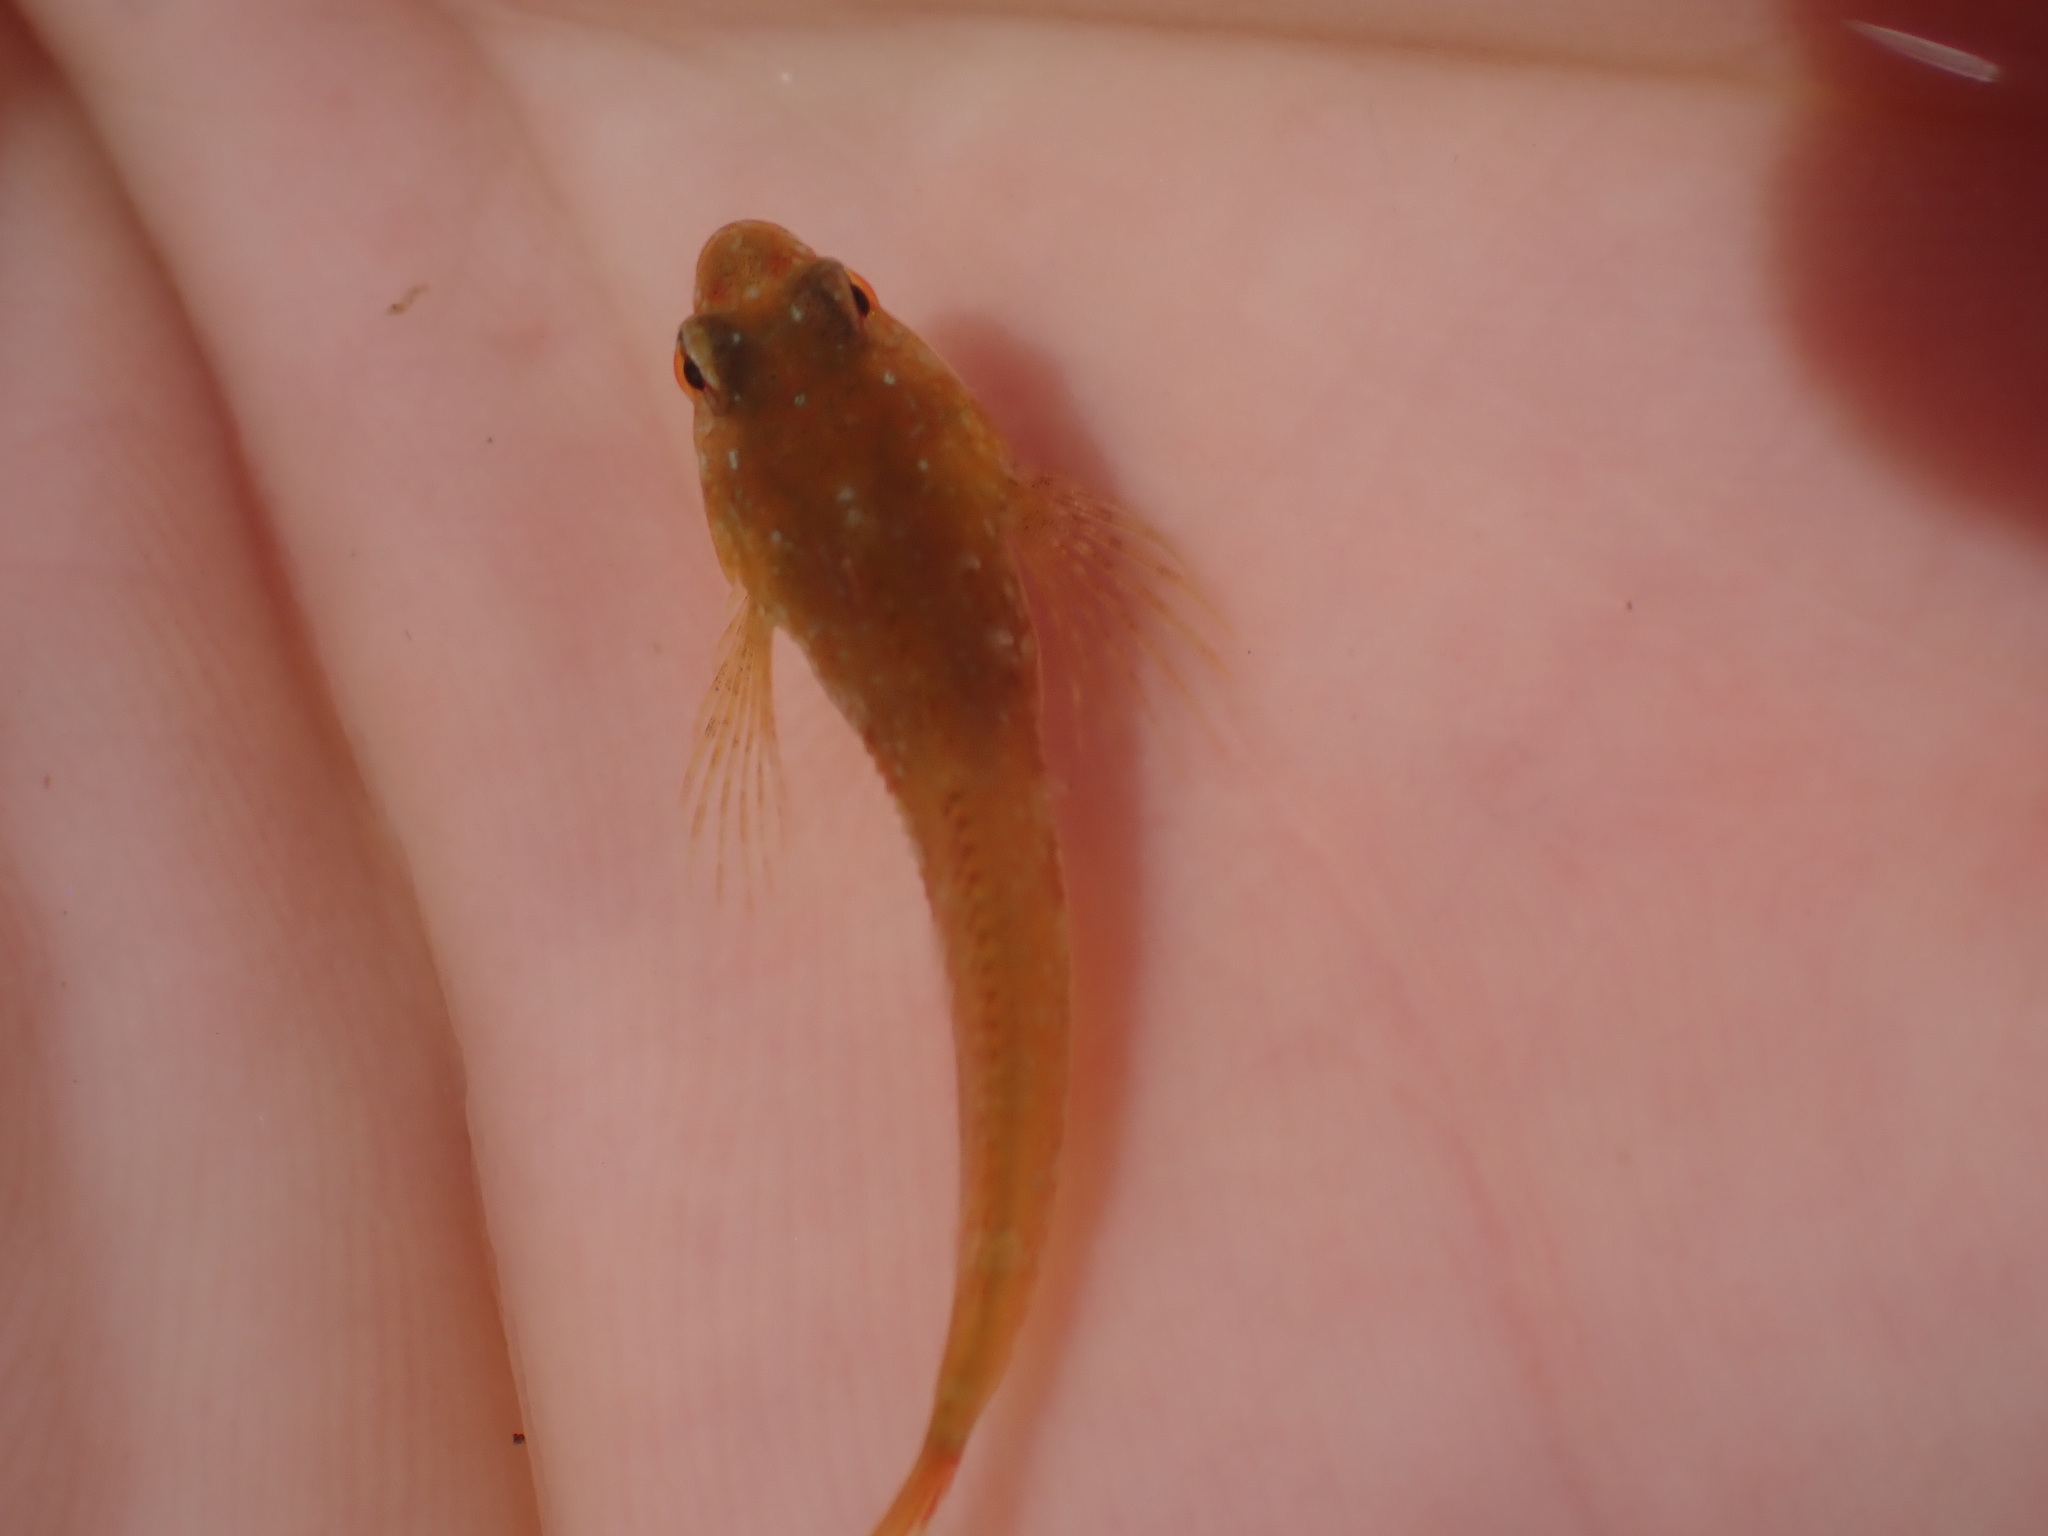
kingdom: Animalia
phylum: Chordata
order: Scorpaeniformes
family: Cottidae
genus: Oligocottus
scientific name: Oligocottus maculosus
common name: Tidepool sculpin
